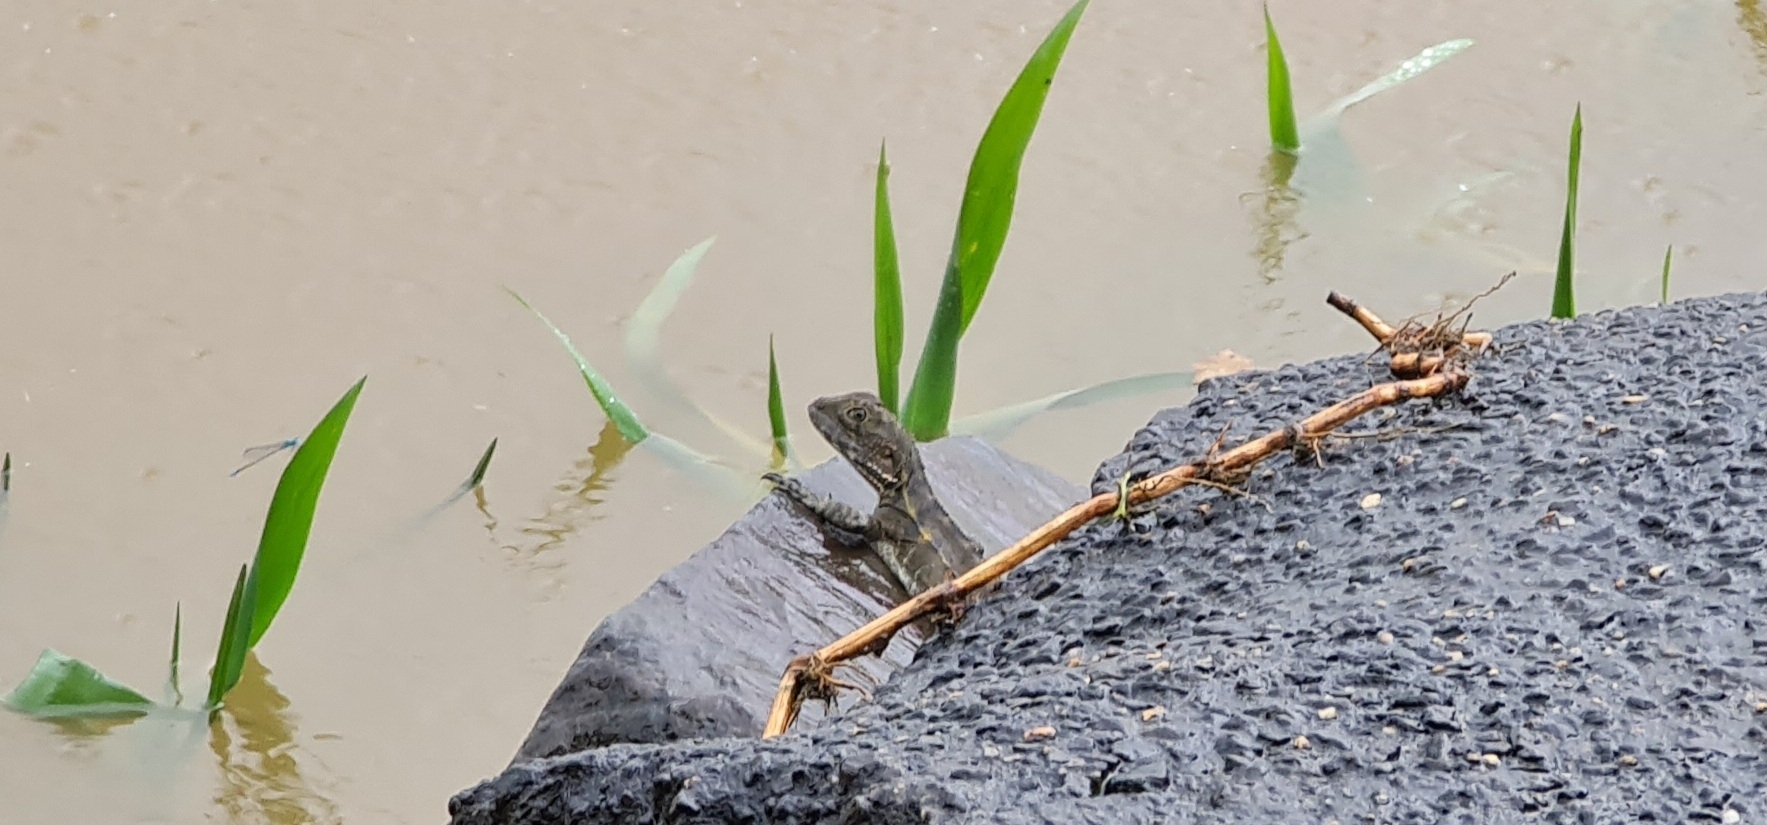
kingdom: Animalia
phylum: Chordata
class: Squamata
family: Agamidae
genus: Intellagama
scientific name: Intellagama lesueurii
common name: Eastern water dragon
